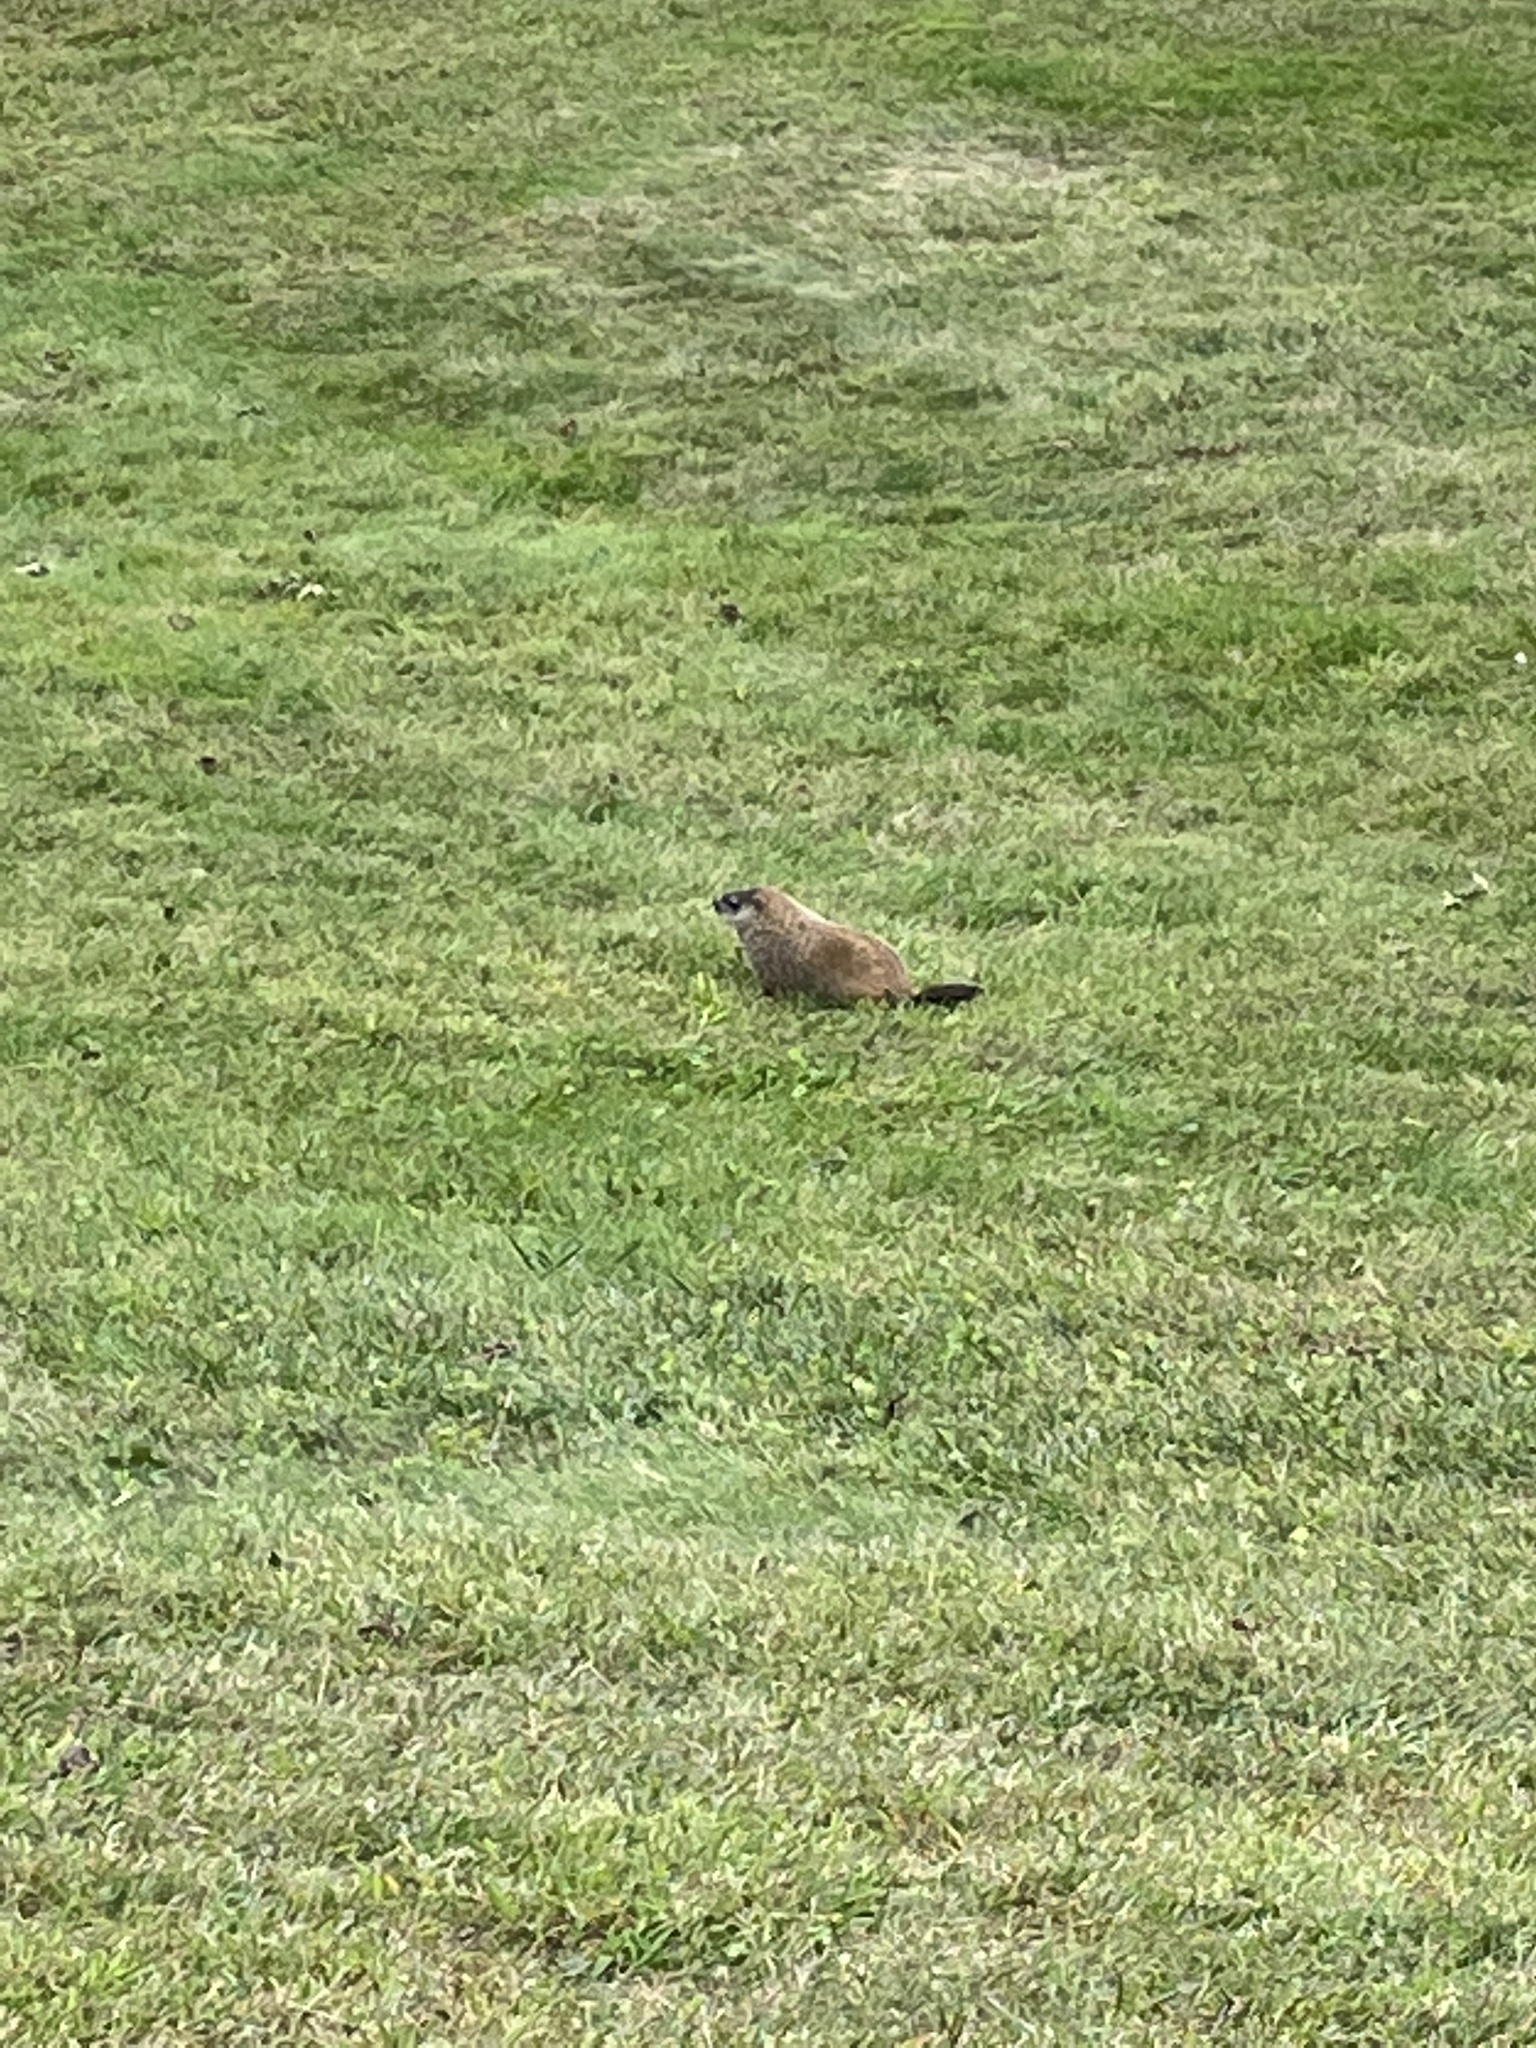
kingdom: Animalia
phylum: Chordata
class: Mammalia
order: Rodentia
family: Sciuridae
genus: Marmota
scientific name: Marmota monax
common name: Groundhog
